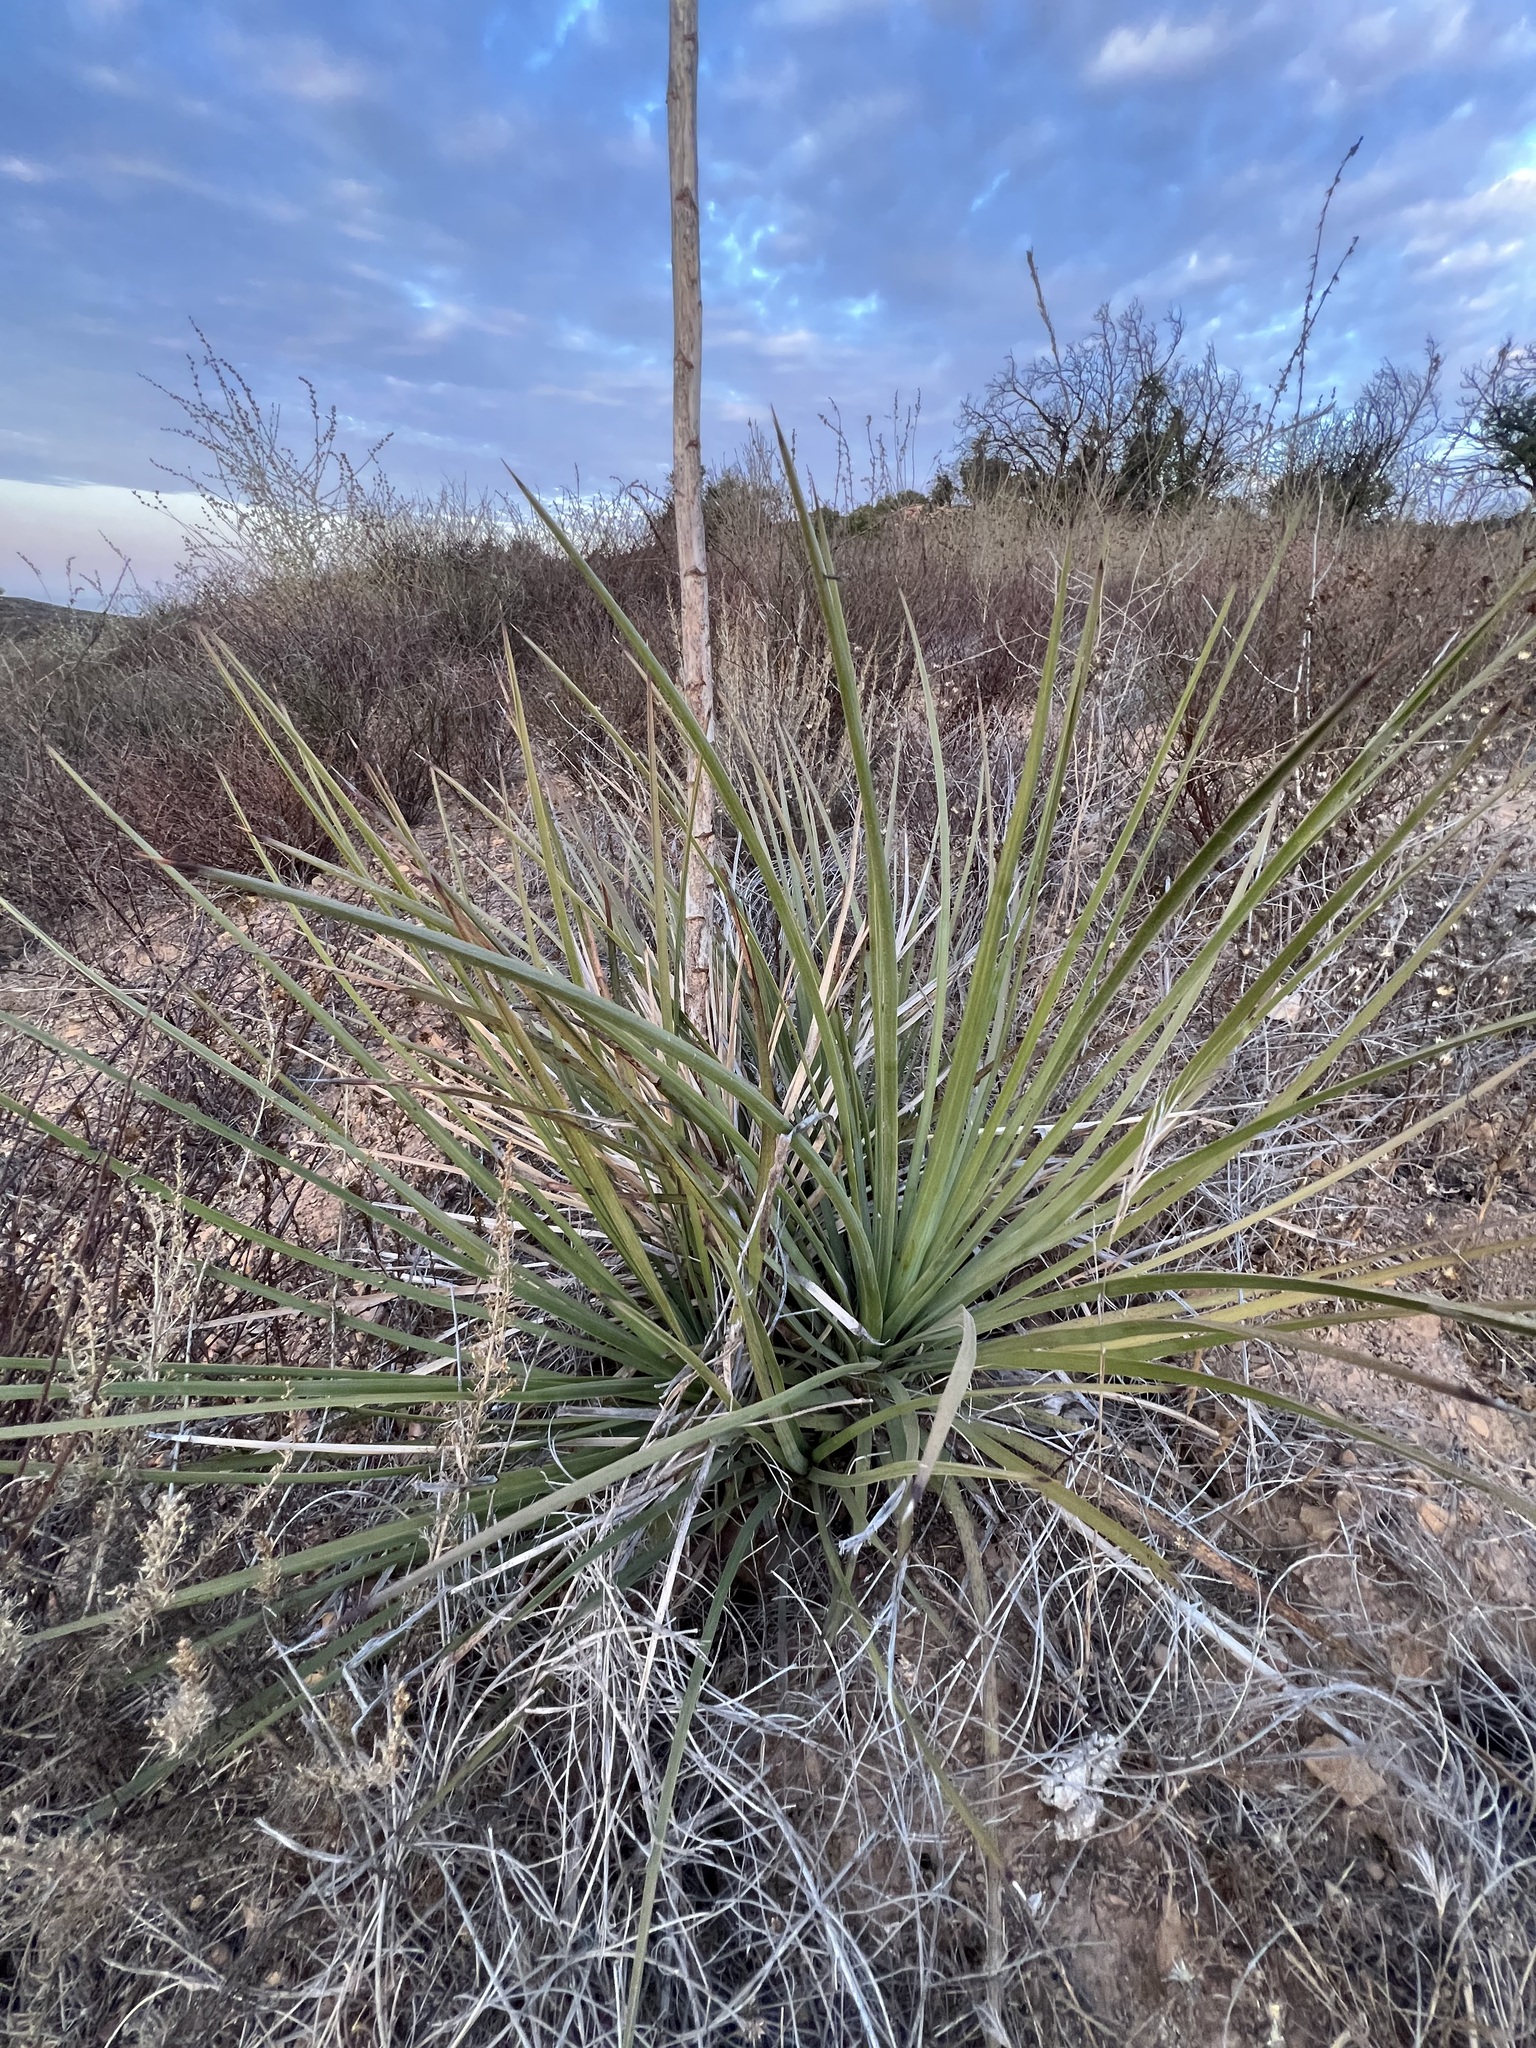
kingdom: Plantae
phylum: Tracheophyta
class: Liliopsida
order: Asparagales
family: Asparagaceae
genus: Hesperoyucca
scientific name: Hesperoyucca whipplei
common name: Our lord's-candle
